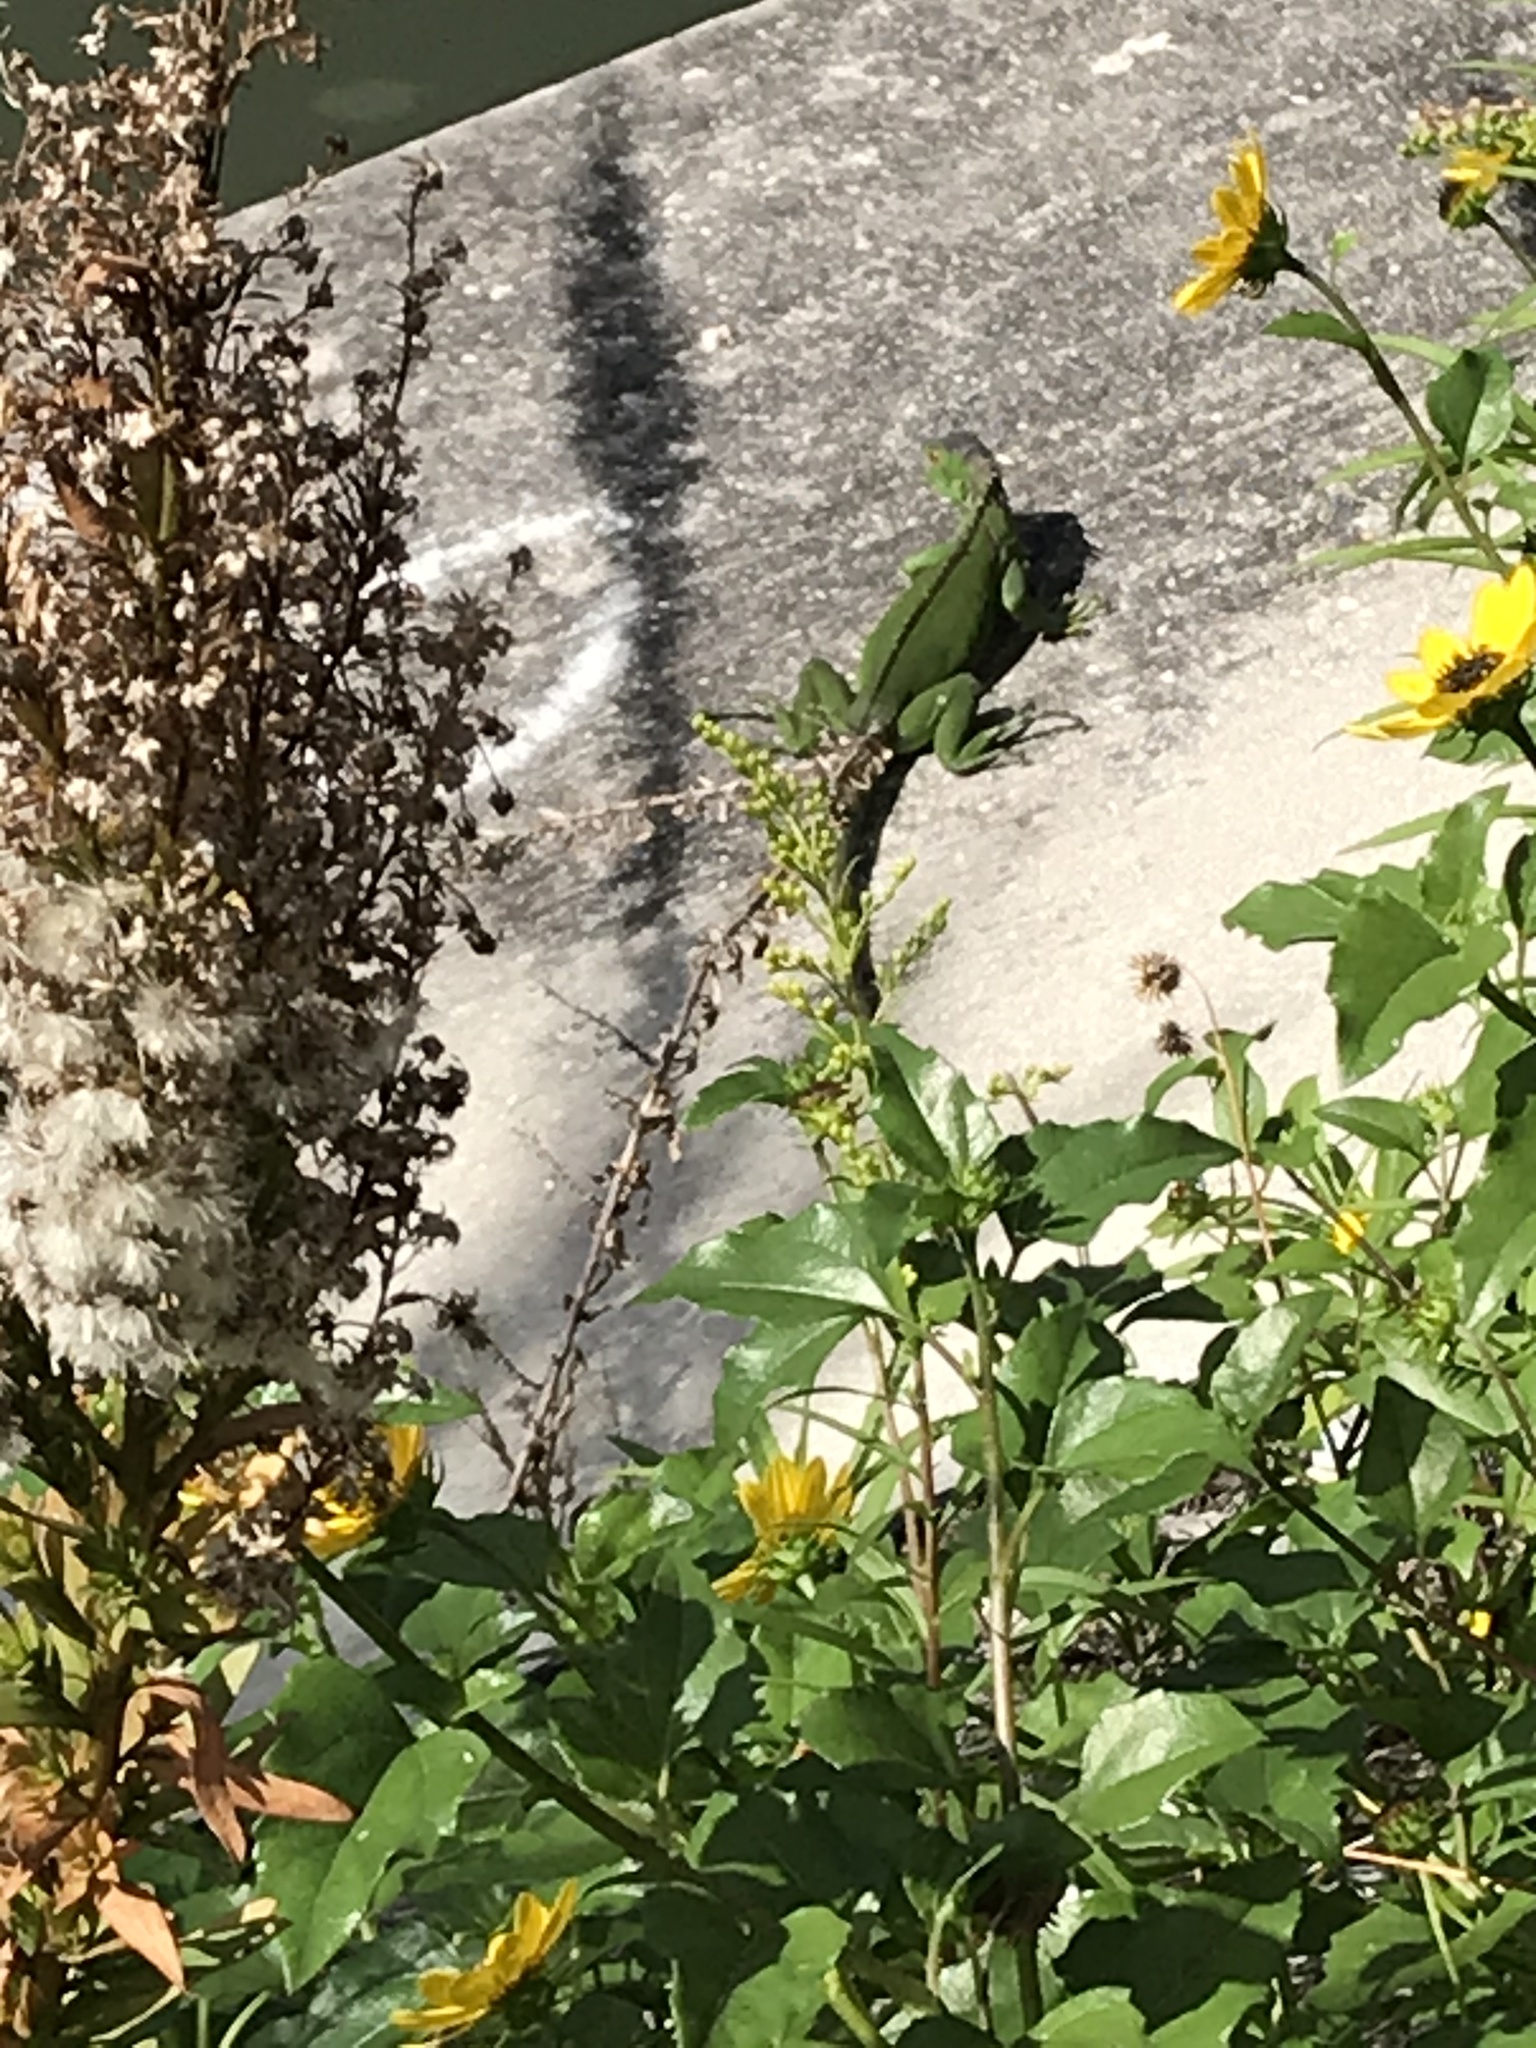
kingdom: Animalia
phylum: Chordata
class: Squamata
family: Iguanidae
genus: Iguana
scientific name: Iguana iguana
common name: Green iguana
